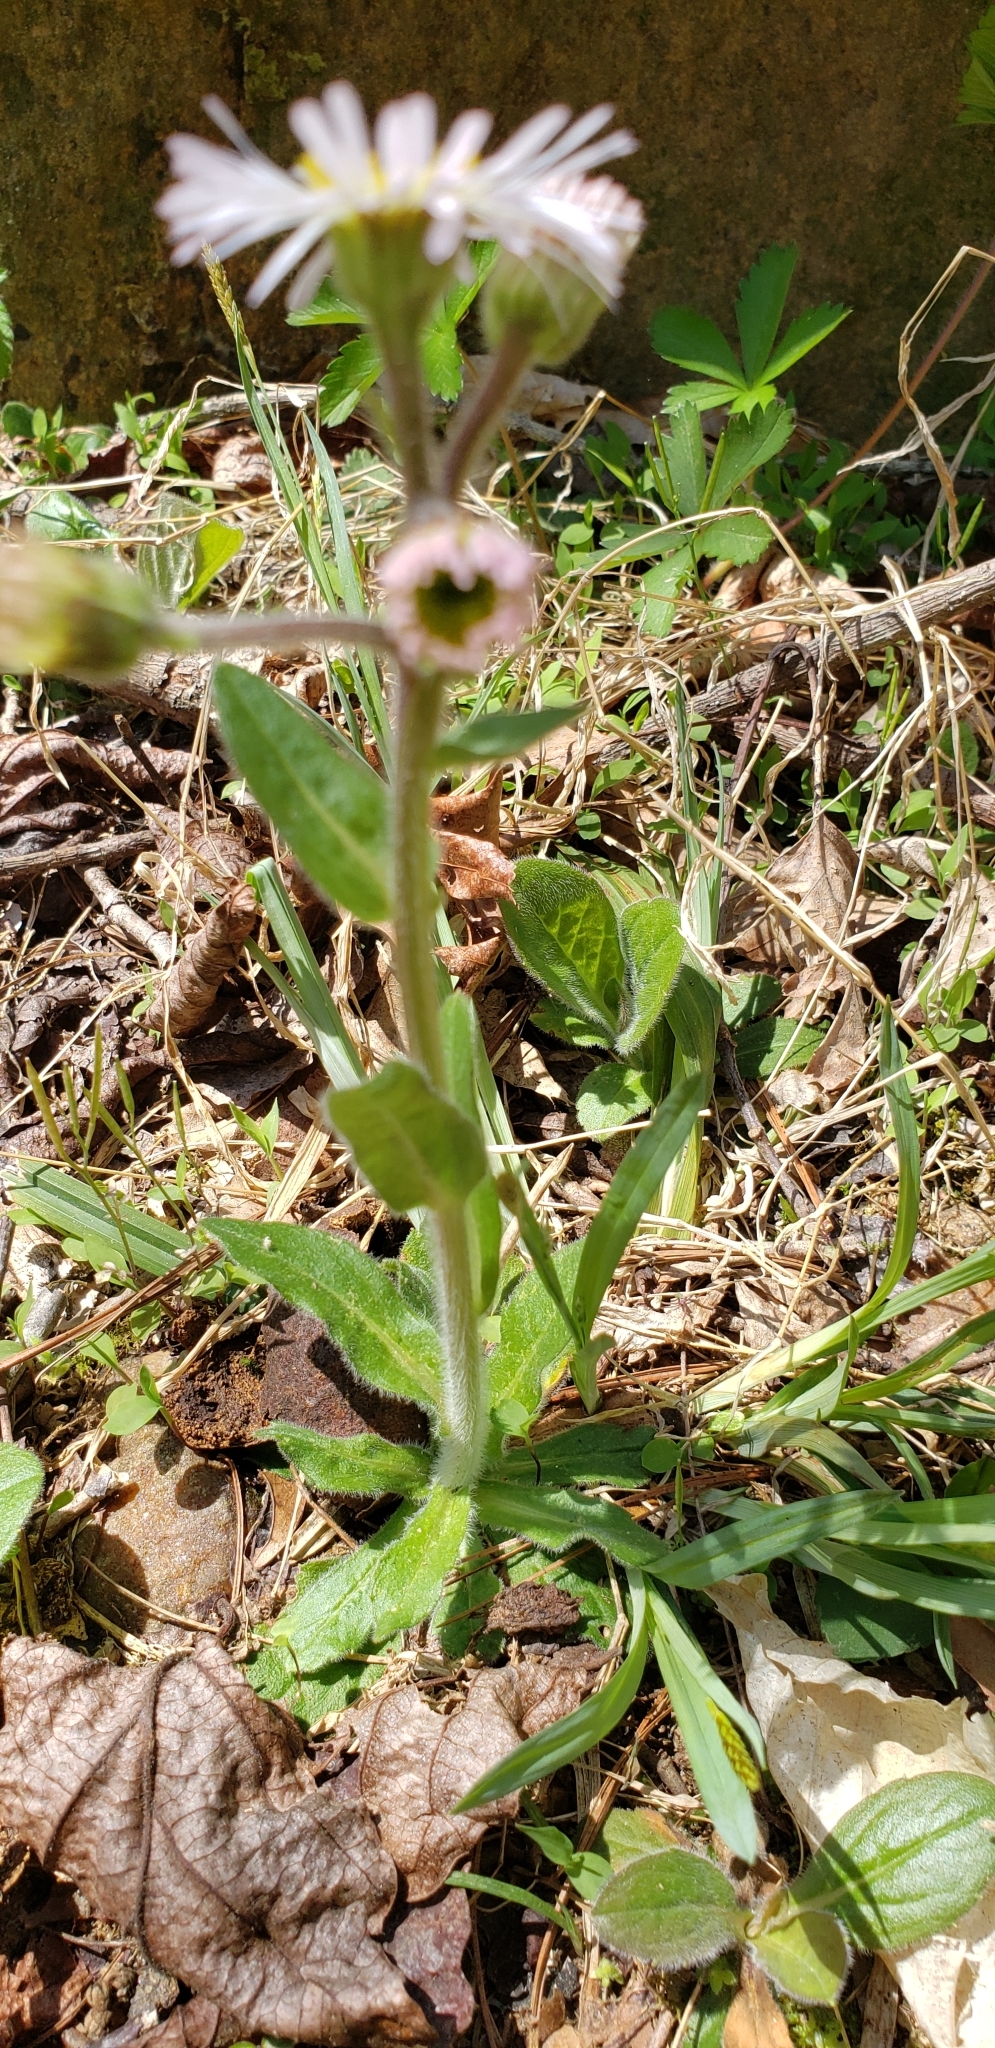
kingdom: Plantae
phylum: Tracheophyta
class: Magnoliopsida
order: Asterales
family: Asteraceae
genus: Erigeron
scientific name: Erigeron pulchellus
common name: Hairy fleabane
